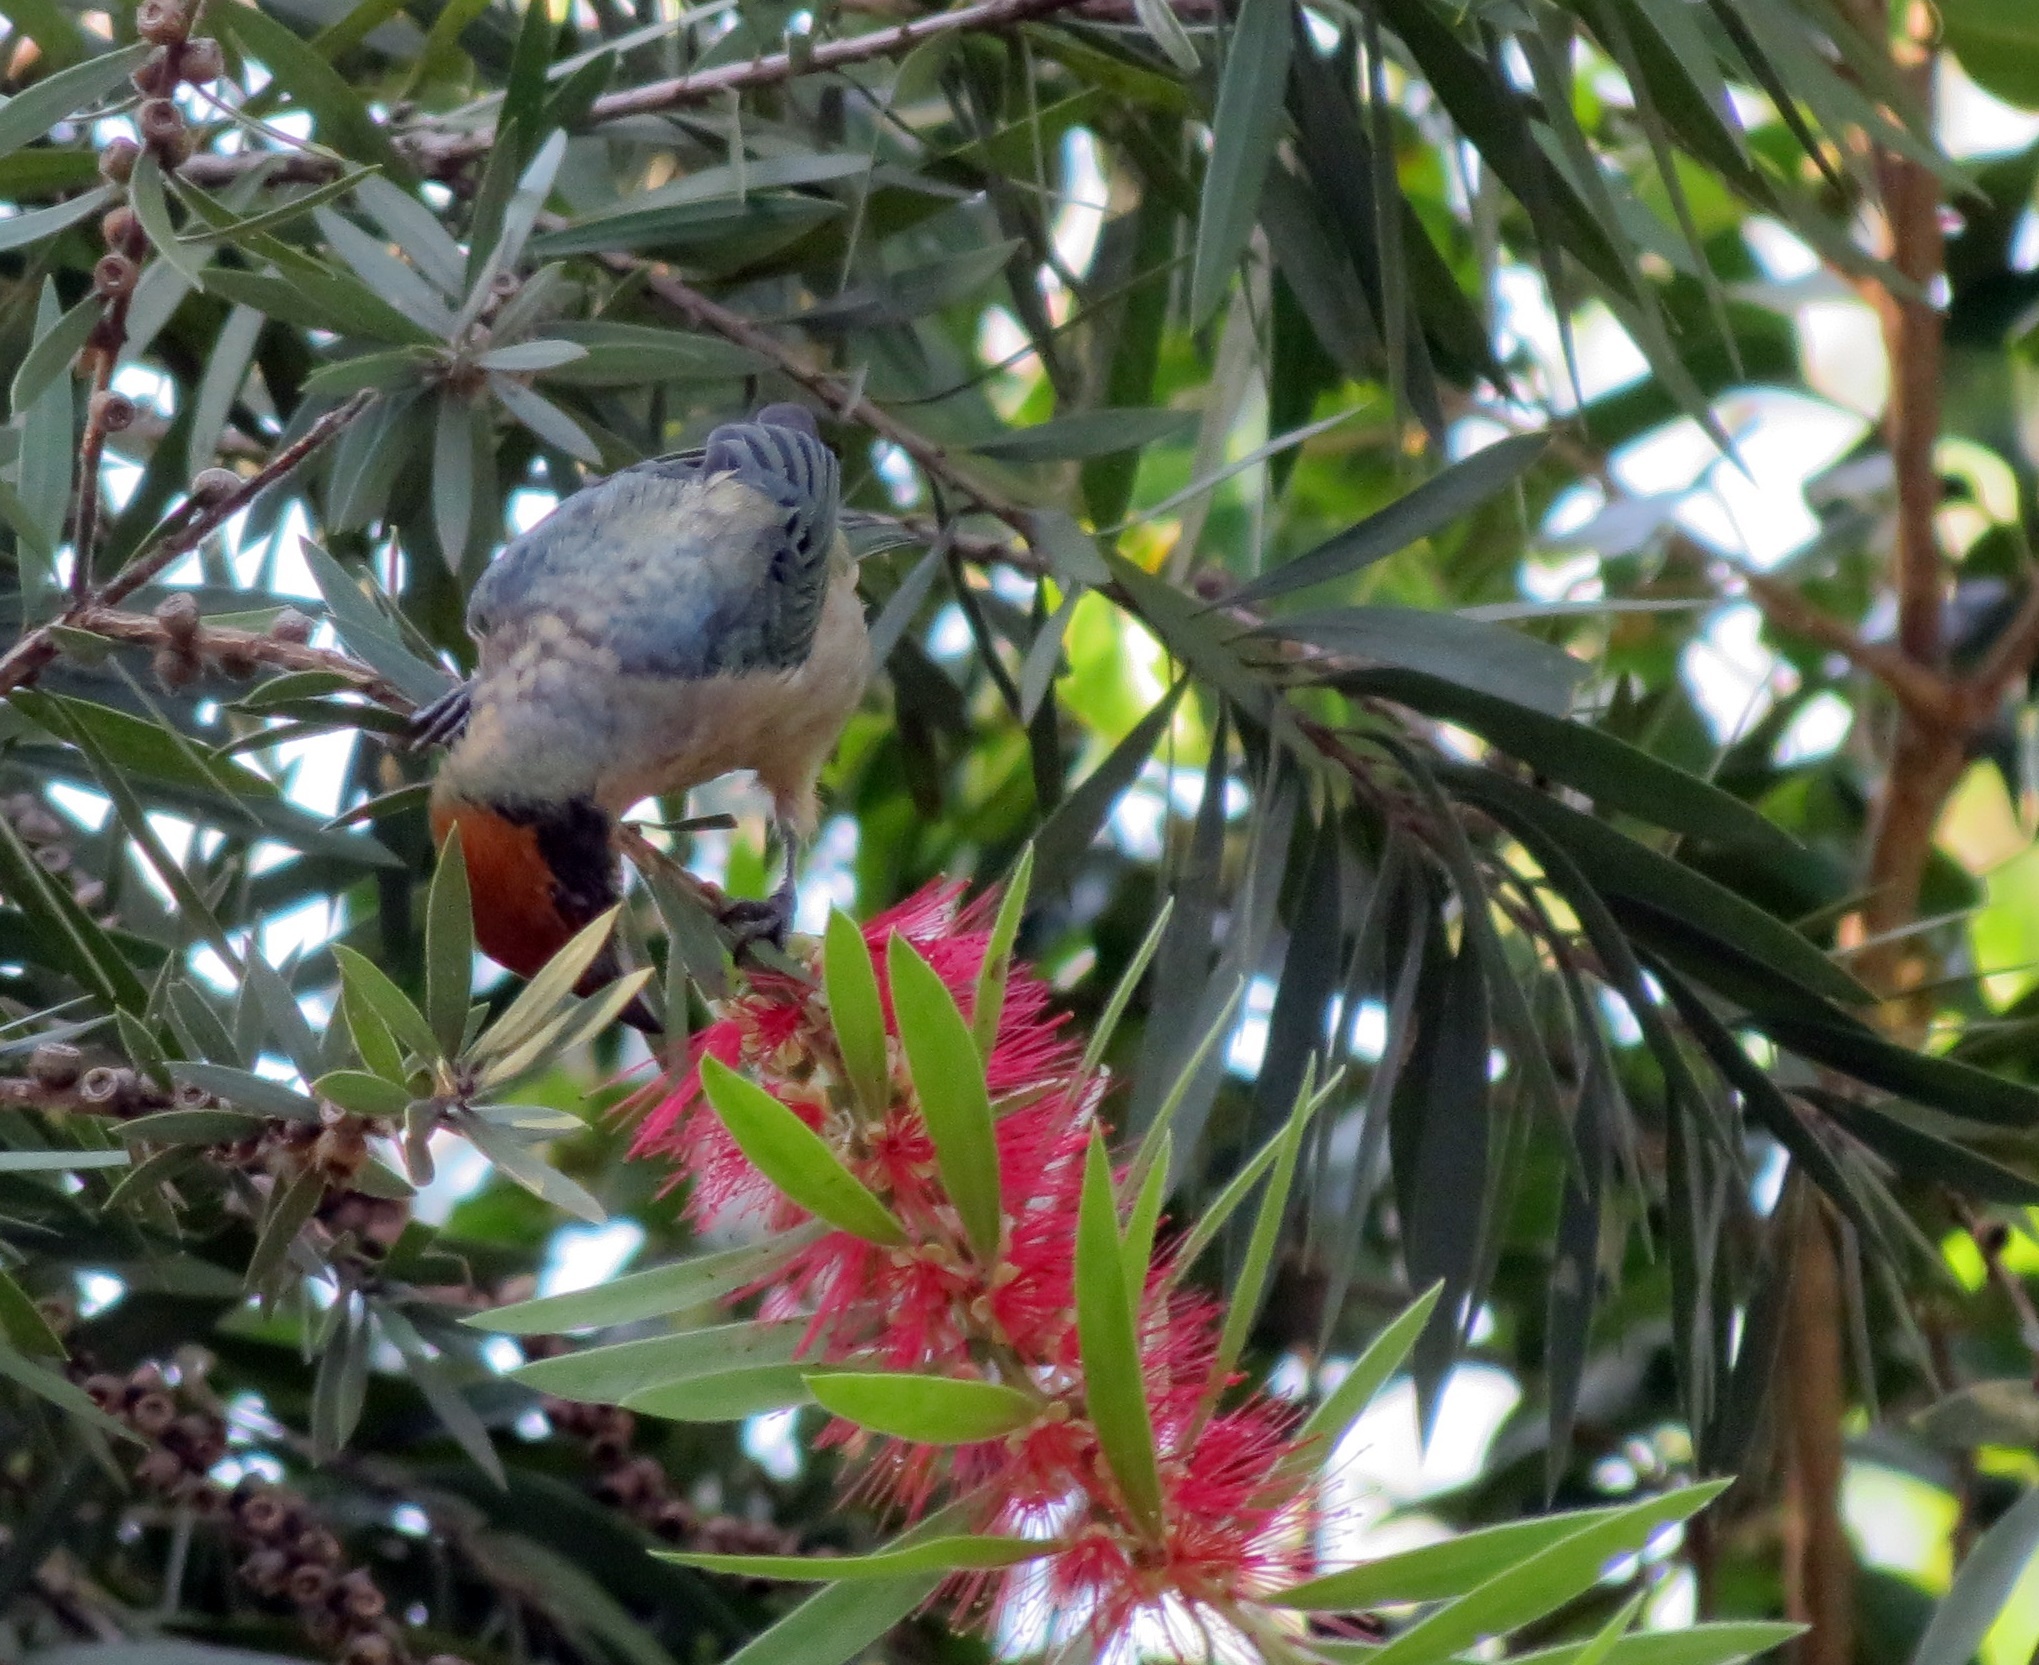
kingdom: Animalia
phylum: Chordata
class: Aves
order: Passeriformes
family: Thraupidae
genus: Stilpnia
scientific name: Stilpnia vitriolina
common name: Scrub tanager
